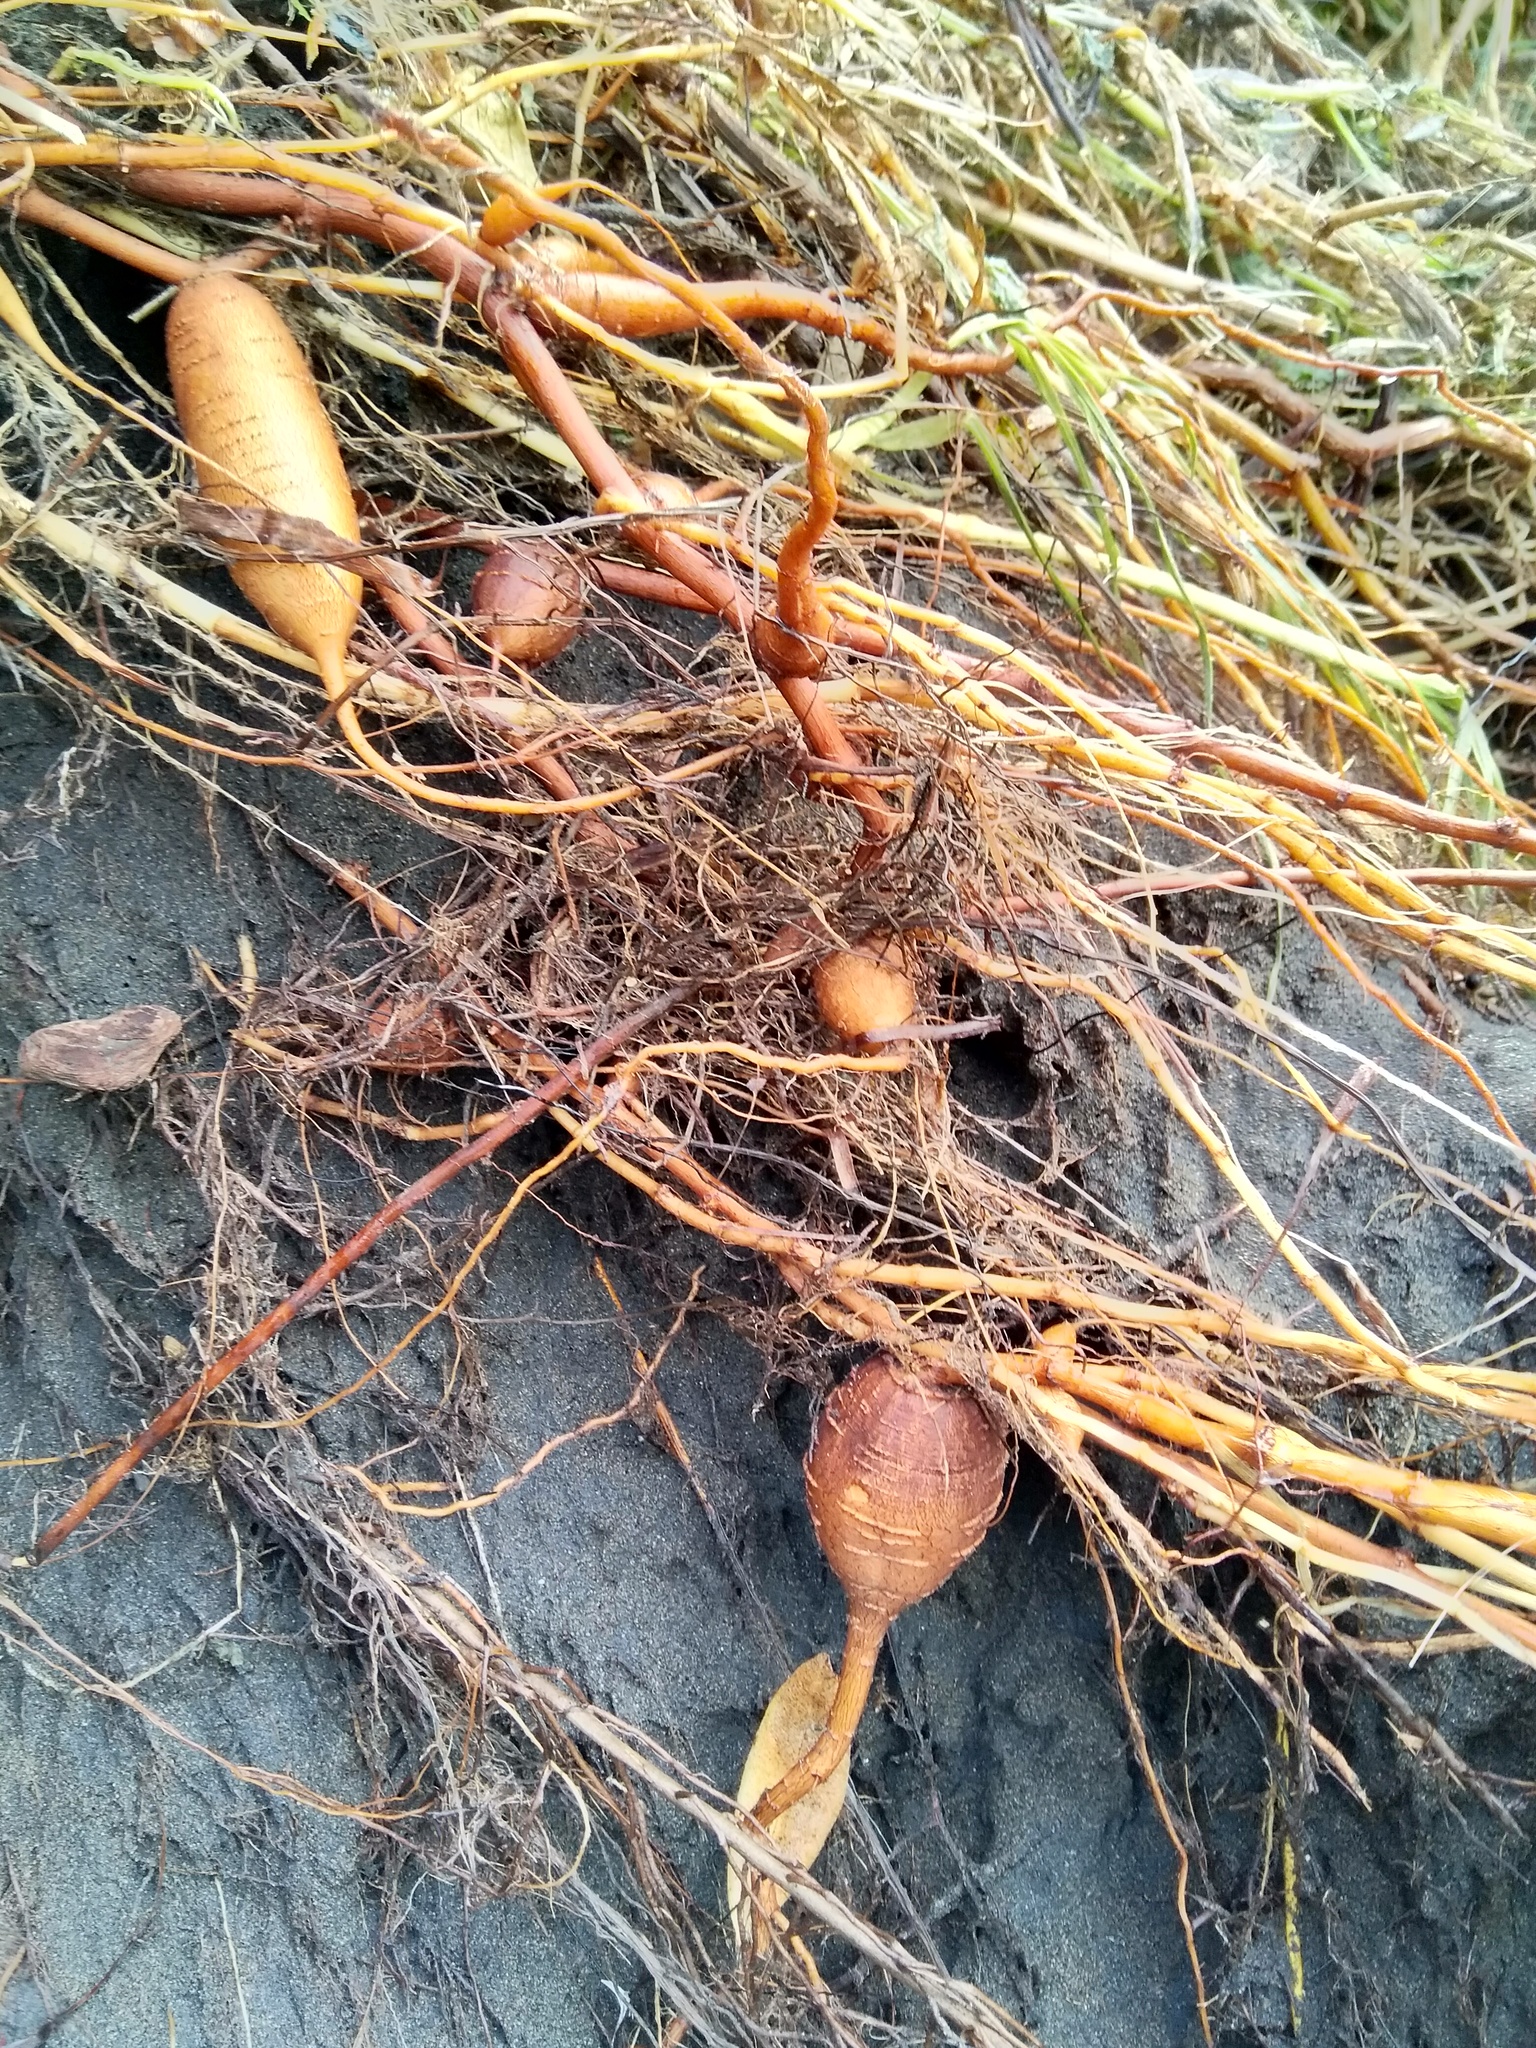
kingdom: Plantae
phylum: Tracheophyta
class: Magnoliopsida
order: Caryophyllales
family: Polygonaceae
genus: Rumex
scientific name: Rumex sagittatus
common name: Climbing dock
